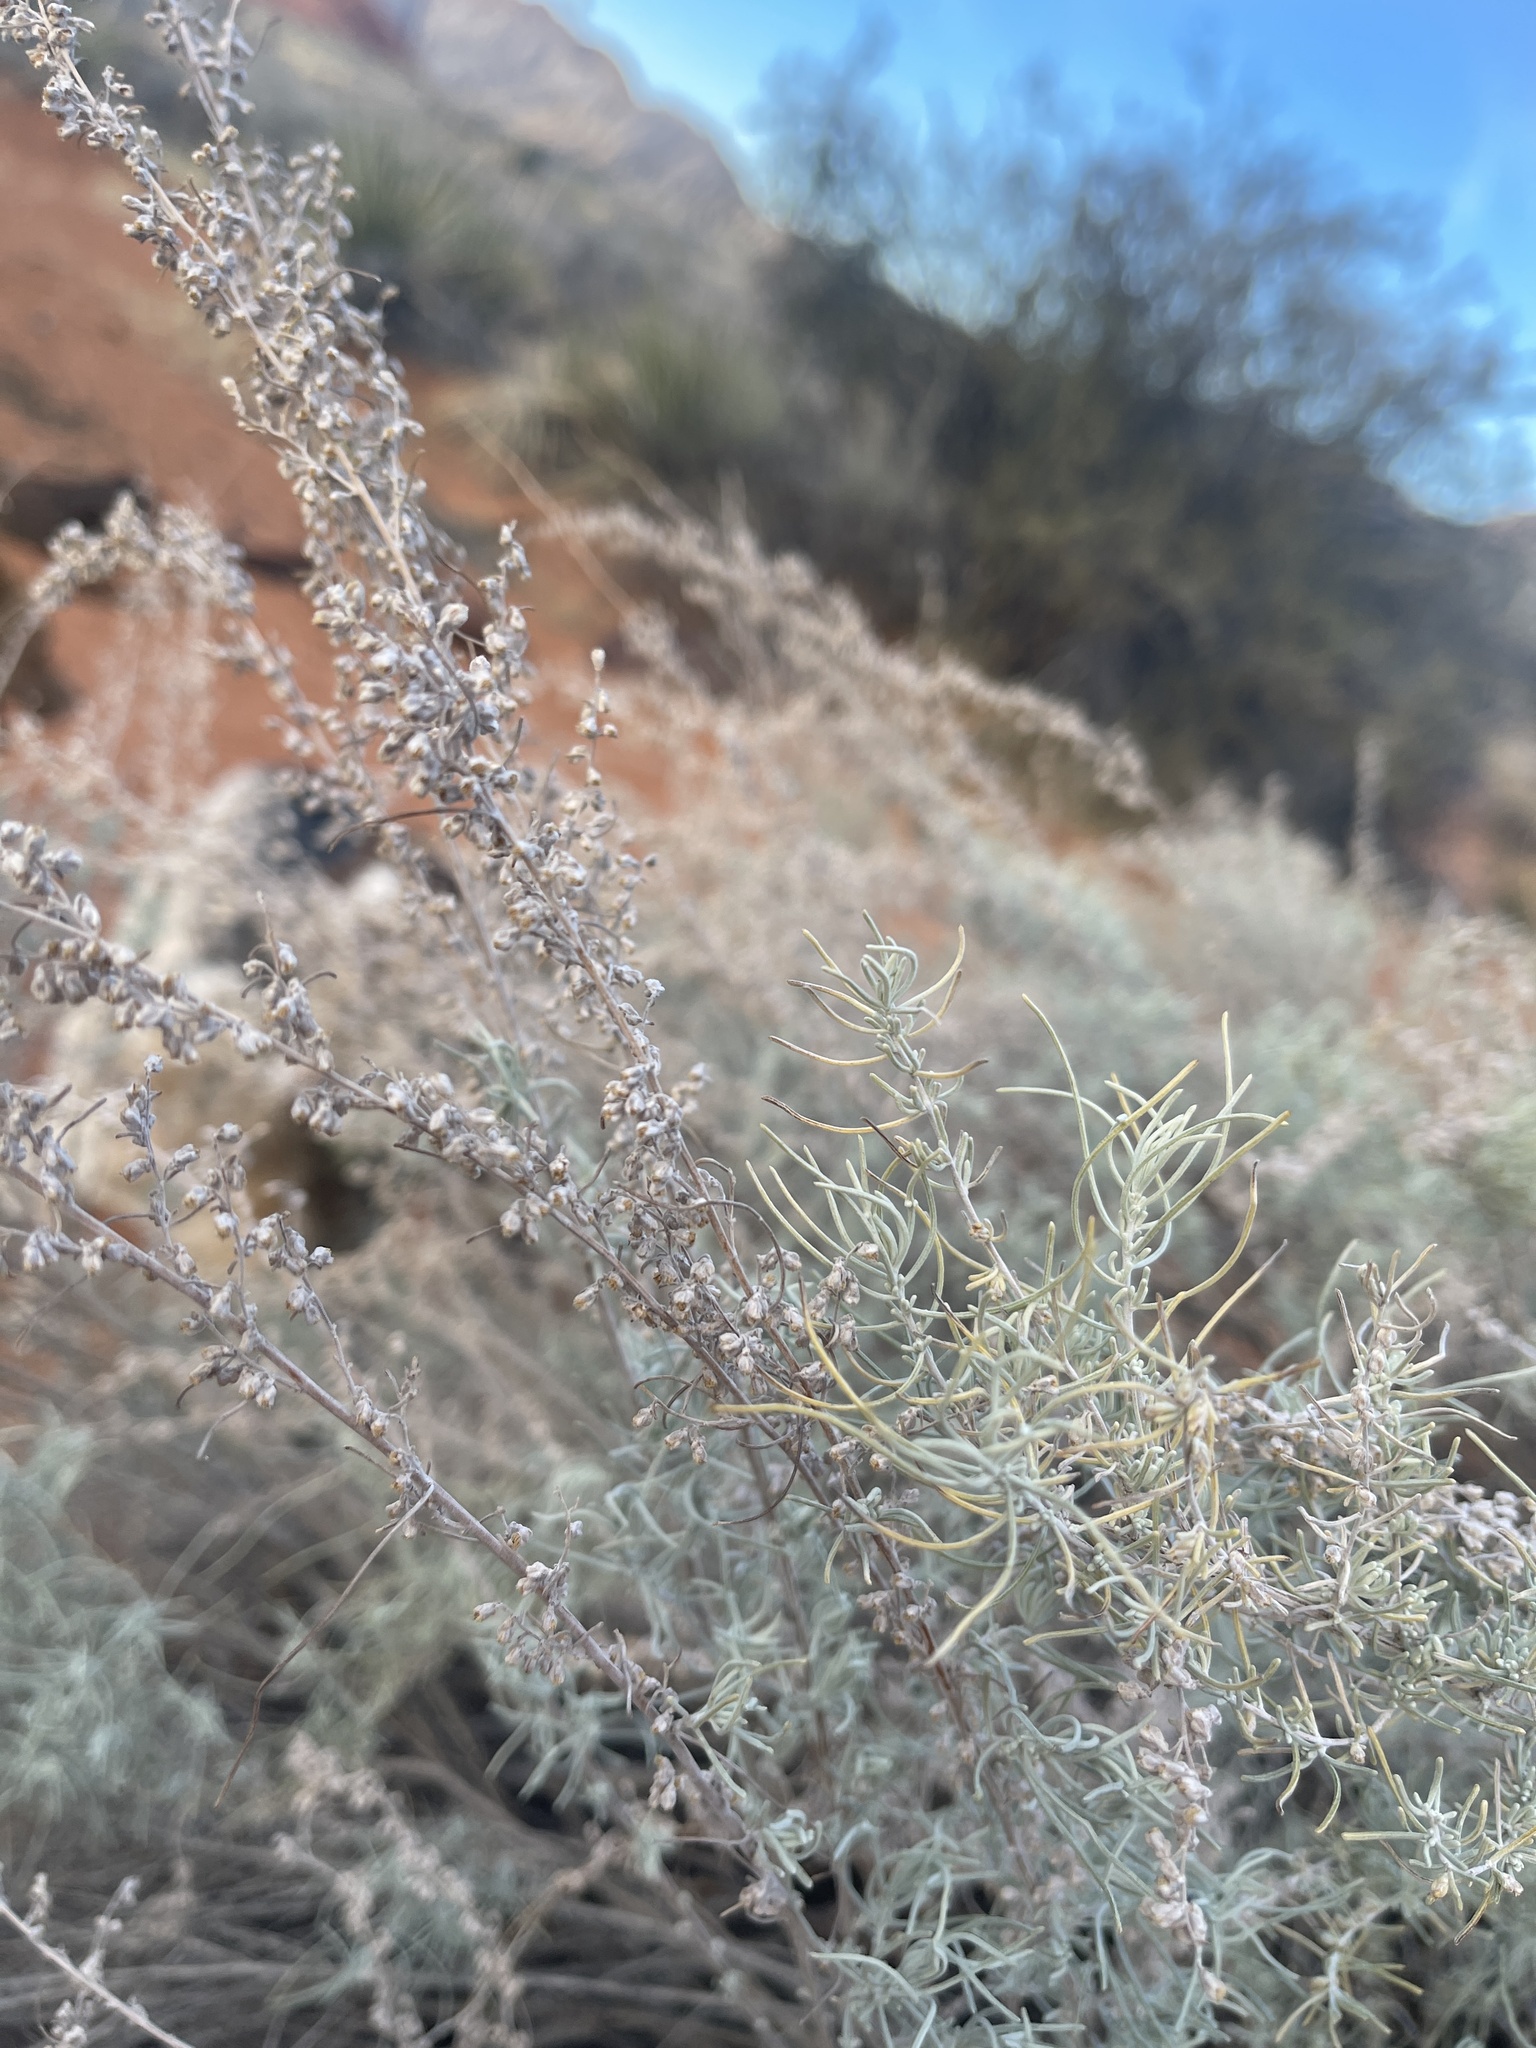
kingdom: Plantae
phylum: Tracheophyta
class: Magnoliopsida
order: Asterales
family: Asteraceae
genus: Artemisia
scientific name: Artemisia filifolia
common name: Sand-sage
